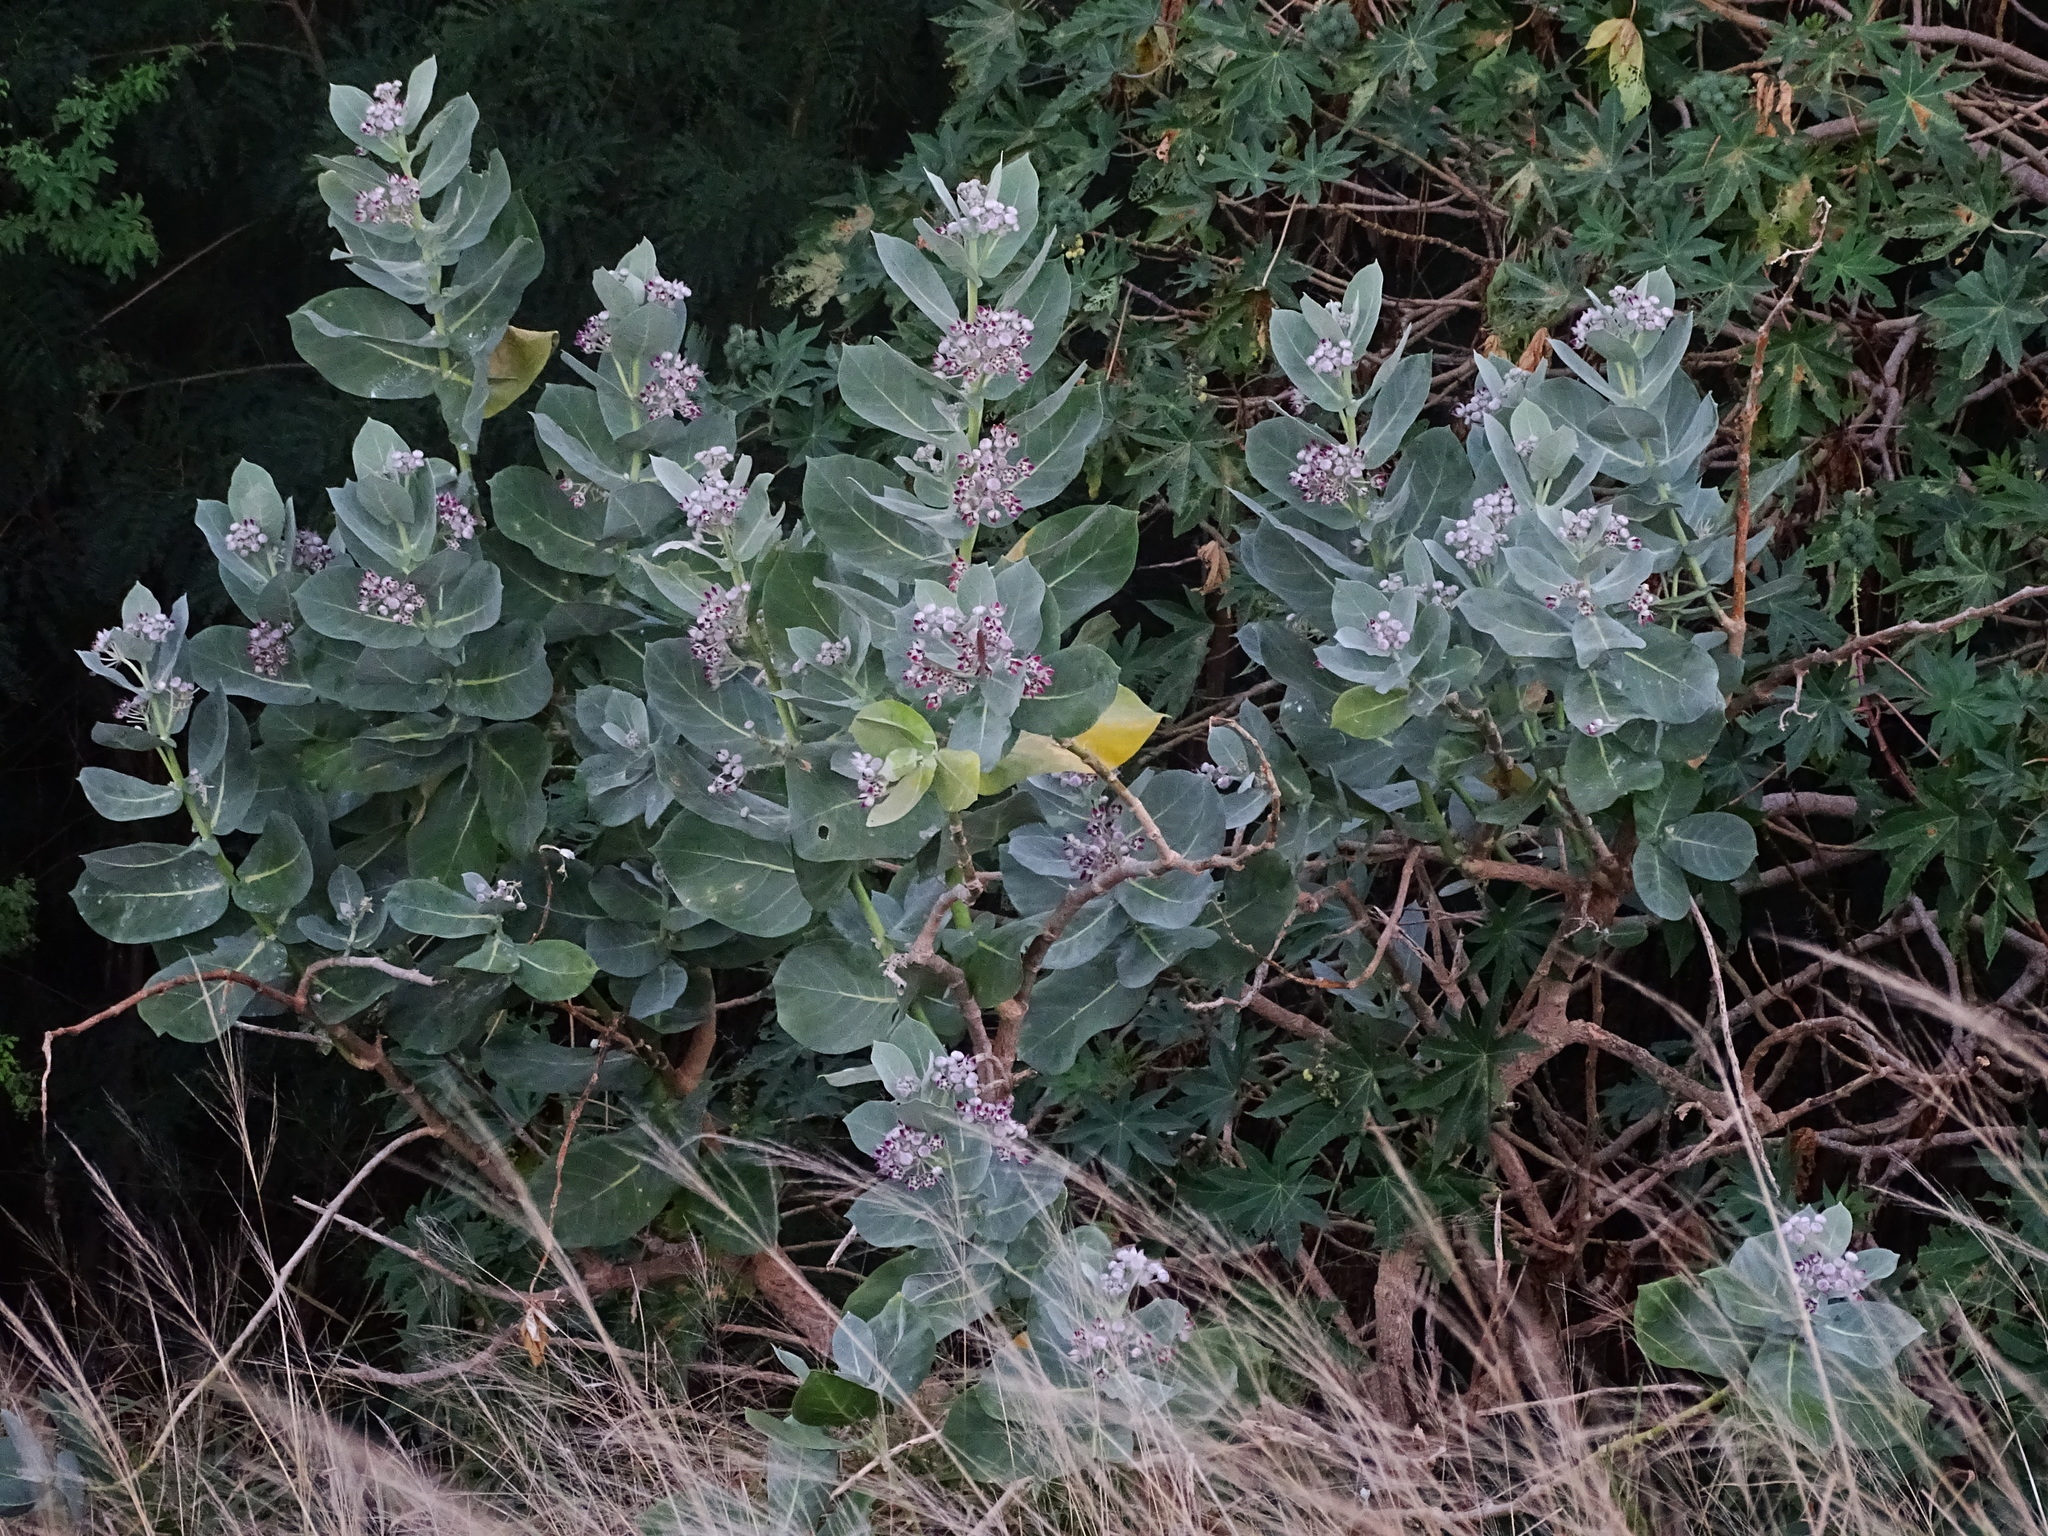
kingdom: Plantae
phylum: Tracheophyta
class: Magnoliopsida
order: Gentianales
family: Apocynaceae
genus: Calotropis
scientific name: Calotropis procera
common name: Roostertree
